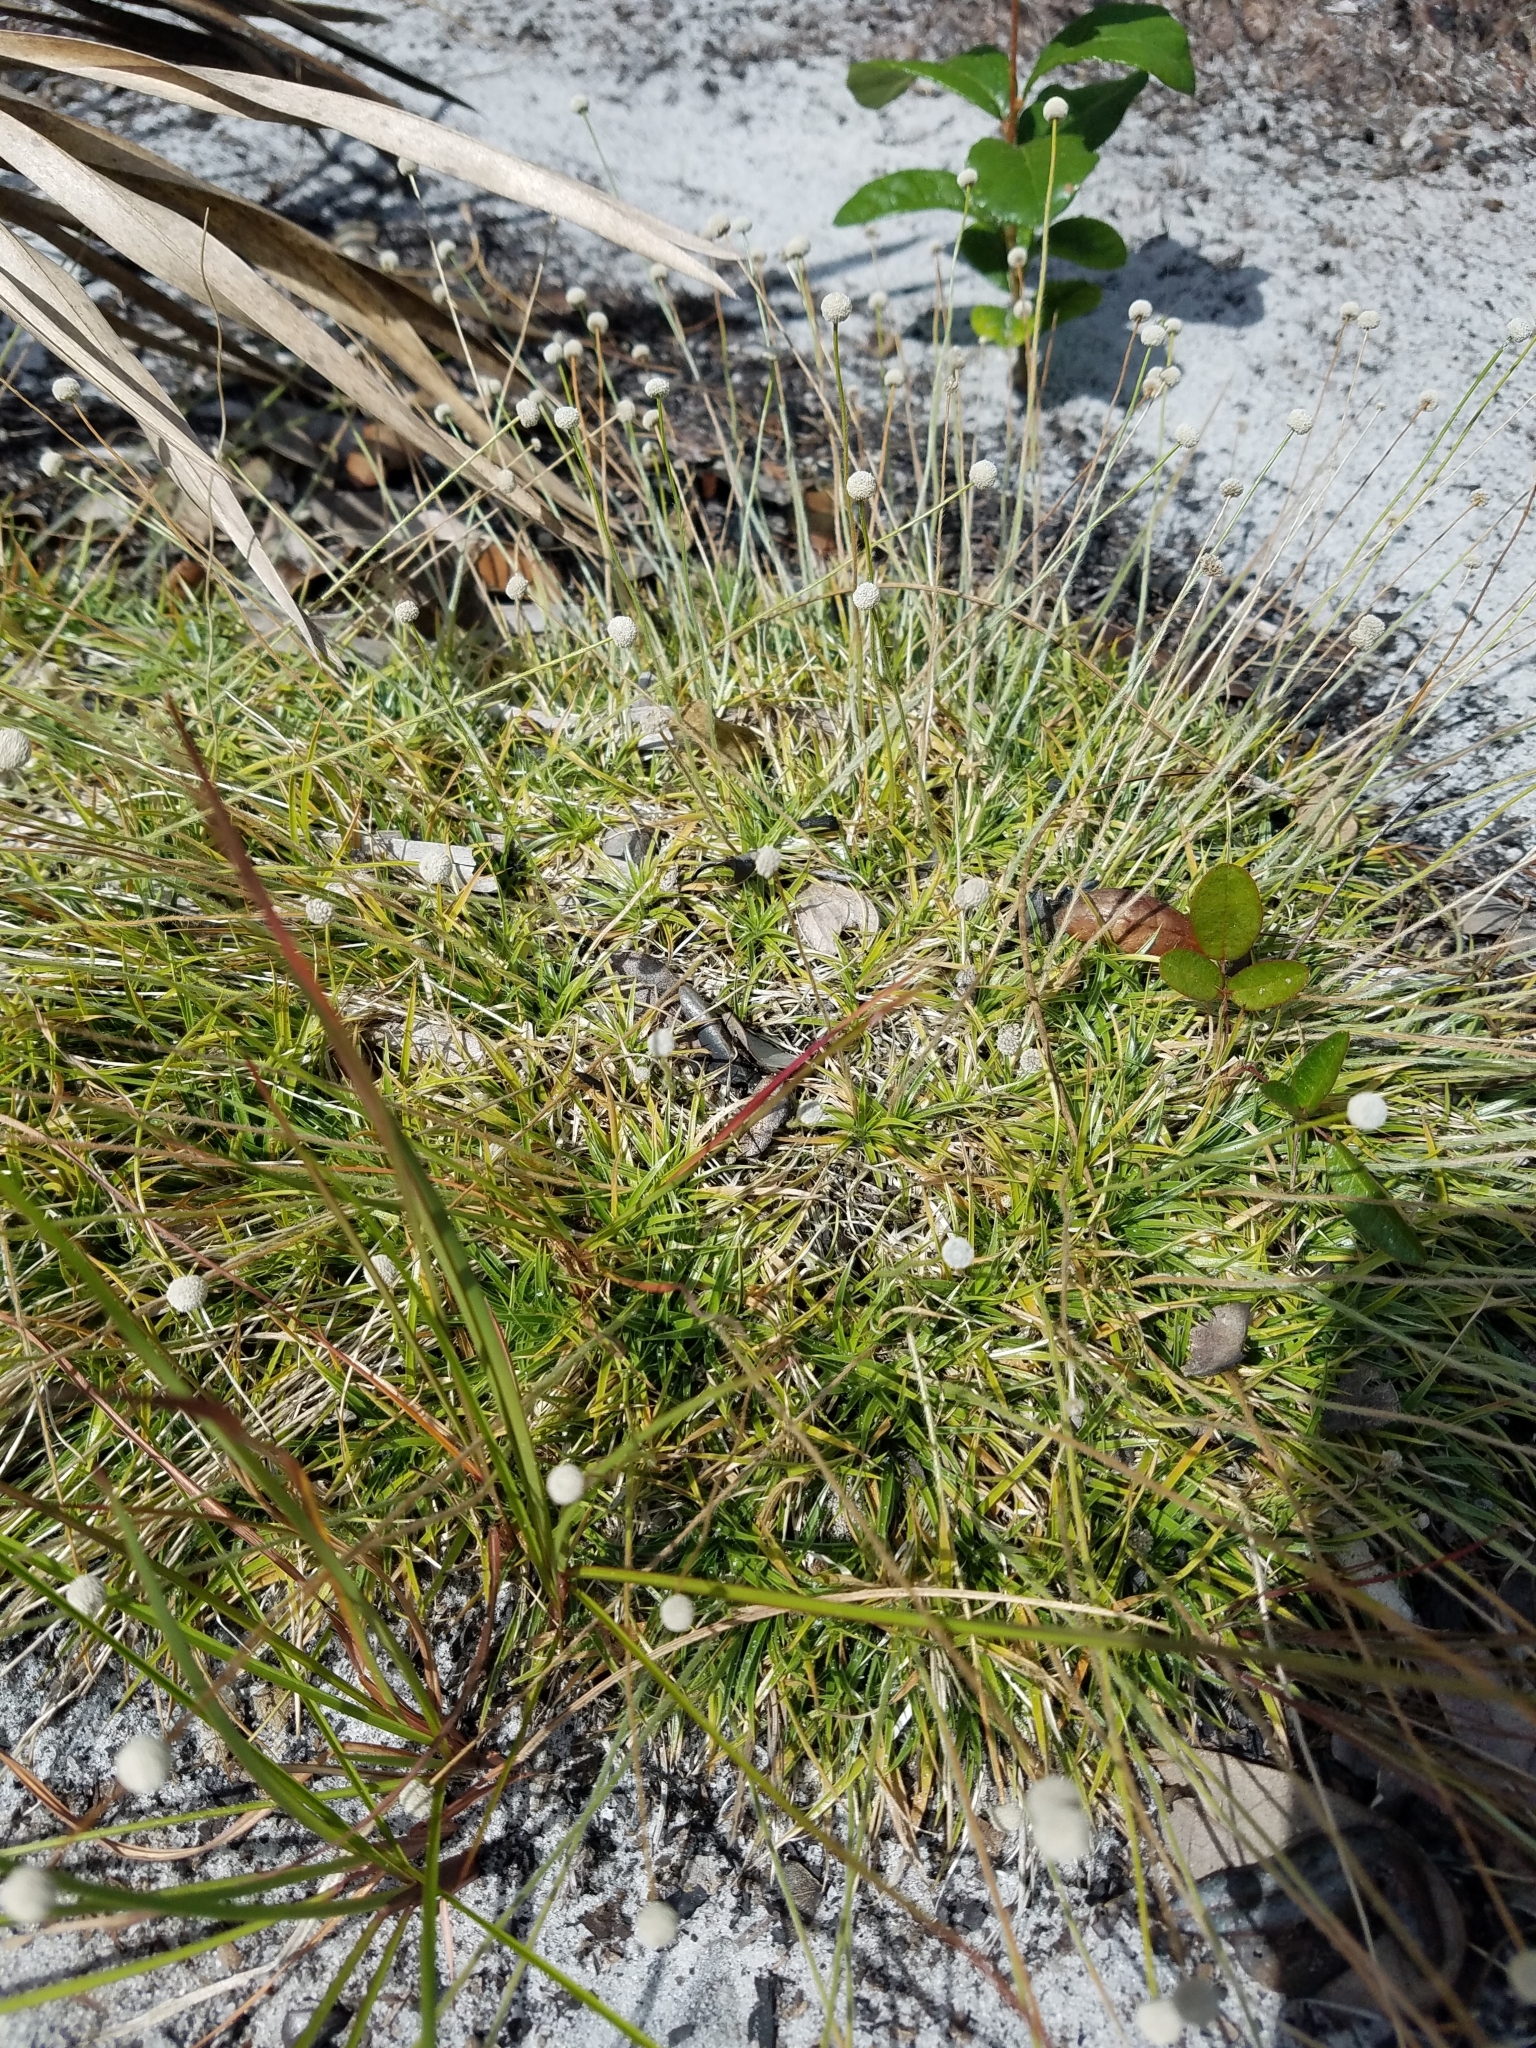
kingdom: Plantae
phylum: Tracheophyta
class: Liliopsida
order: Poales
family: Eriocaulaceae
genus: Paepalanthus
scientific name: Paepalanthus beyrichianus
